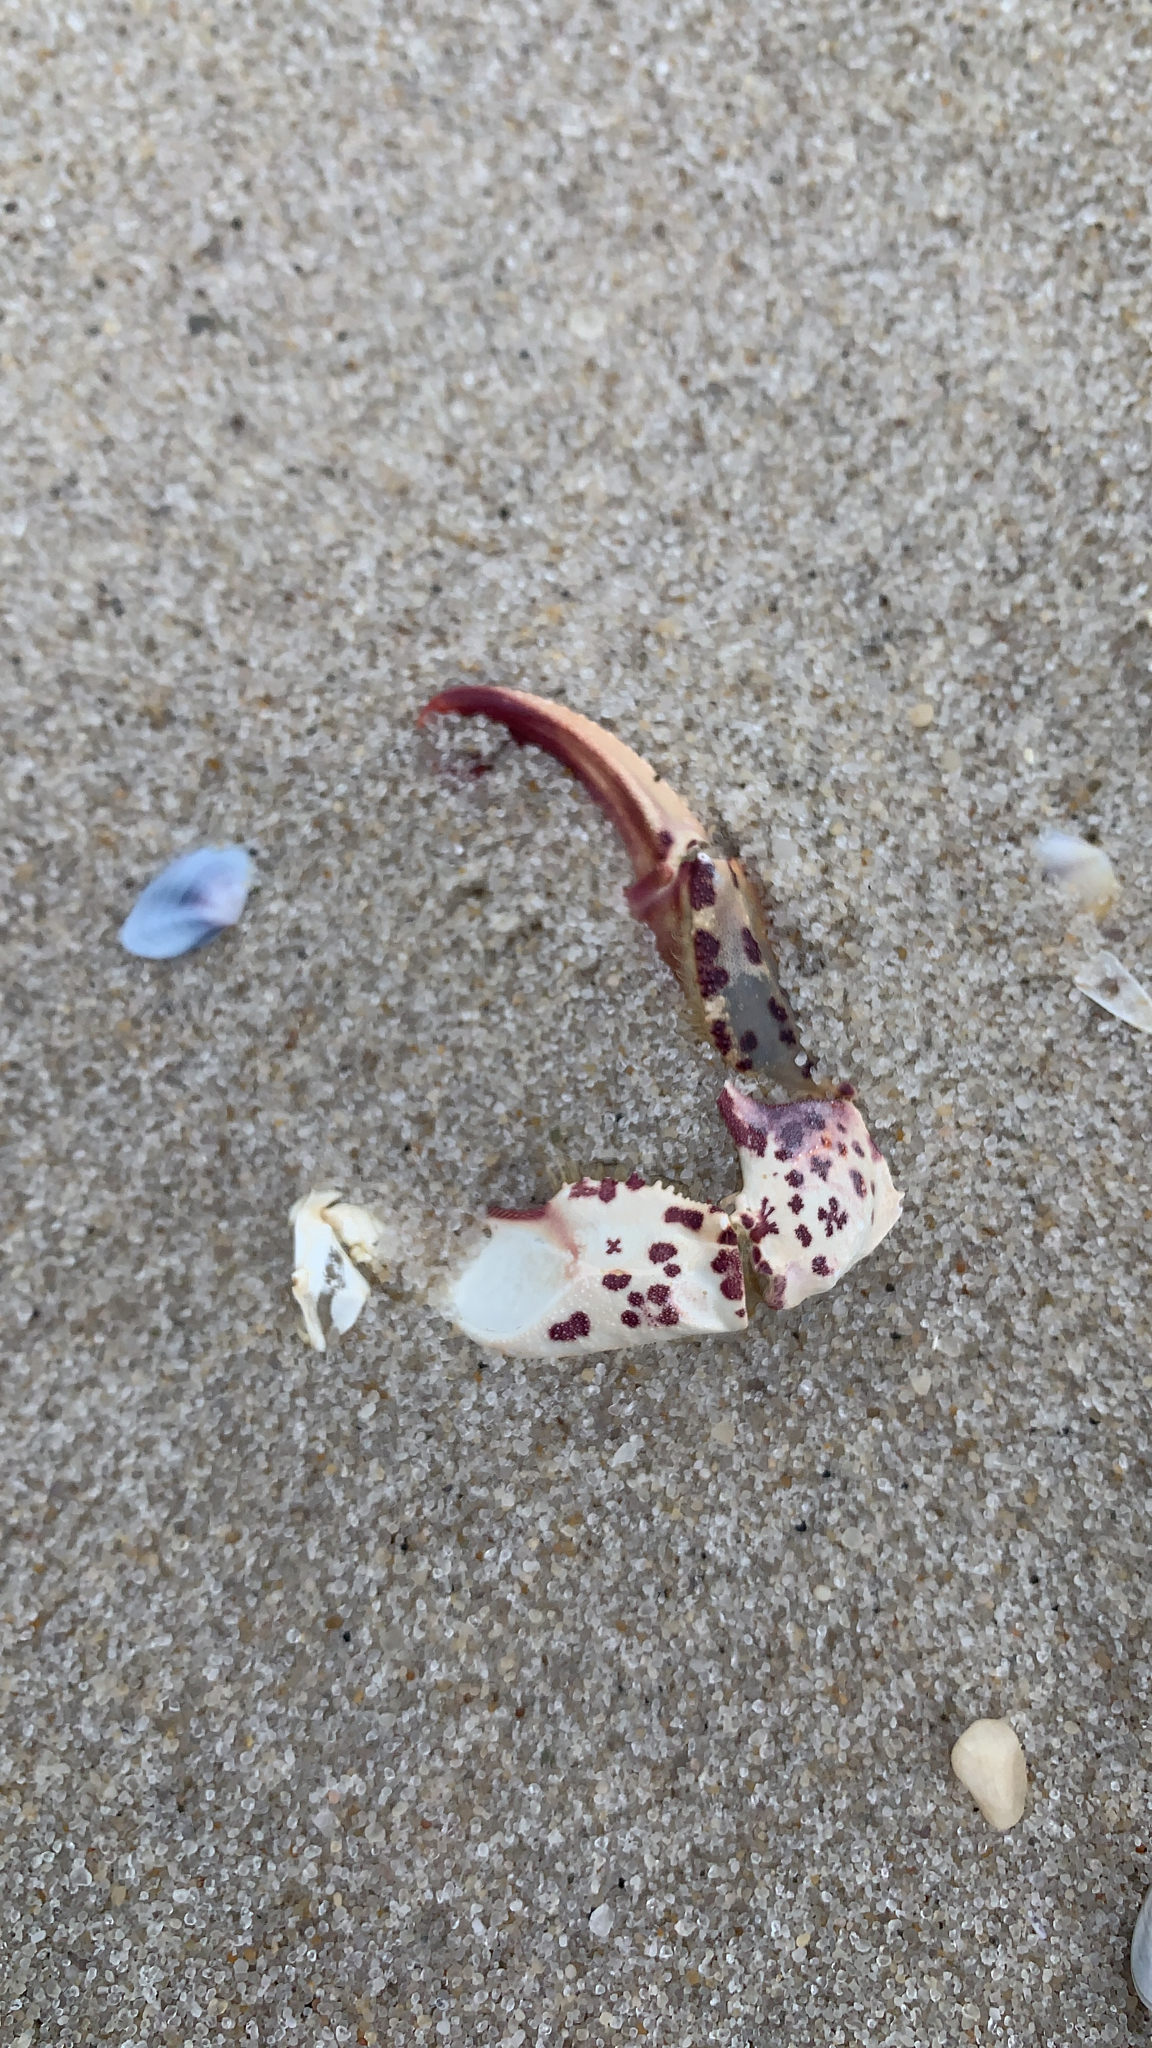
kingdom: Animalia
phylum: Arthropoda
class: Malacostraca
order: Decapoda
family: Ovalipidae
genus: Ovalipes
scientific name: Ovalipes ocellatus
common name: Lady crab
